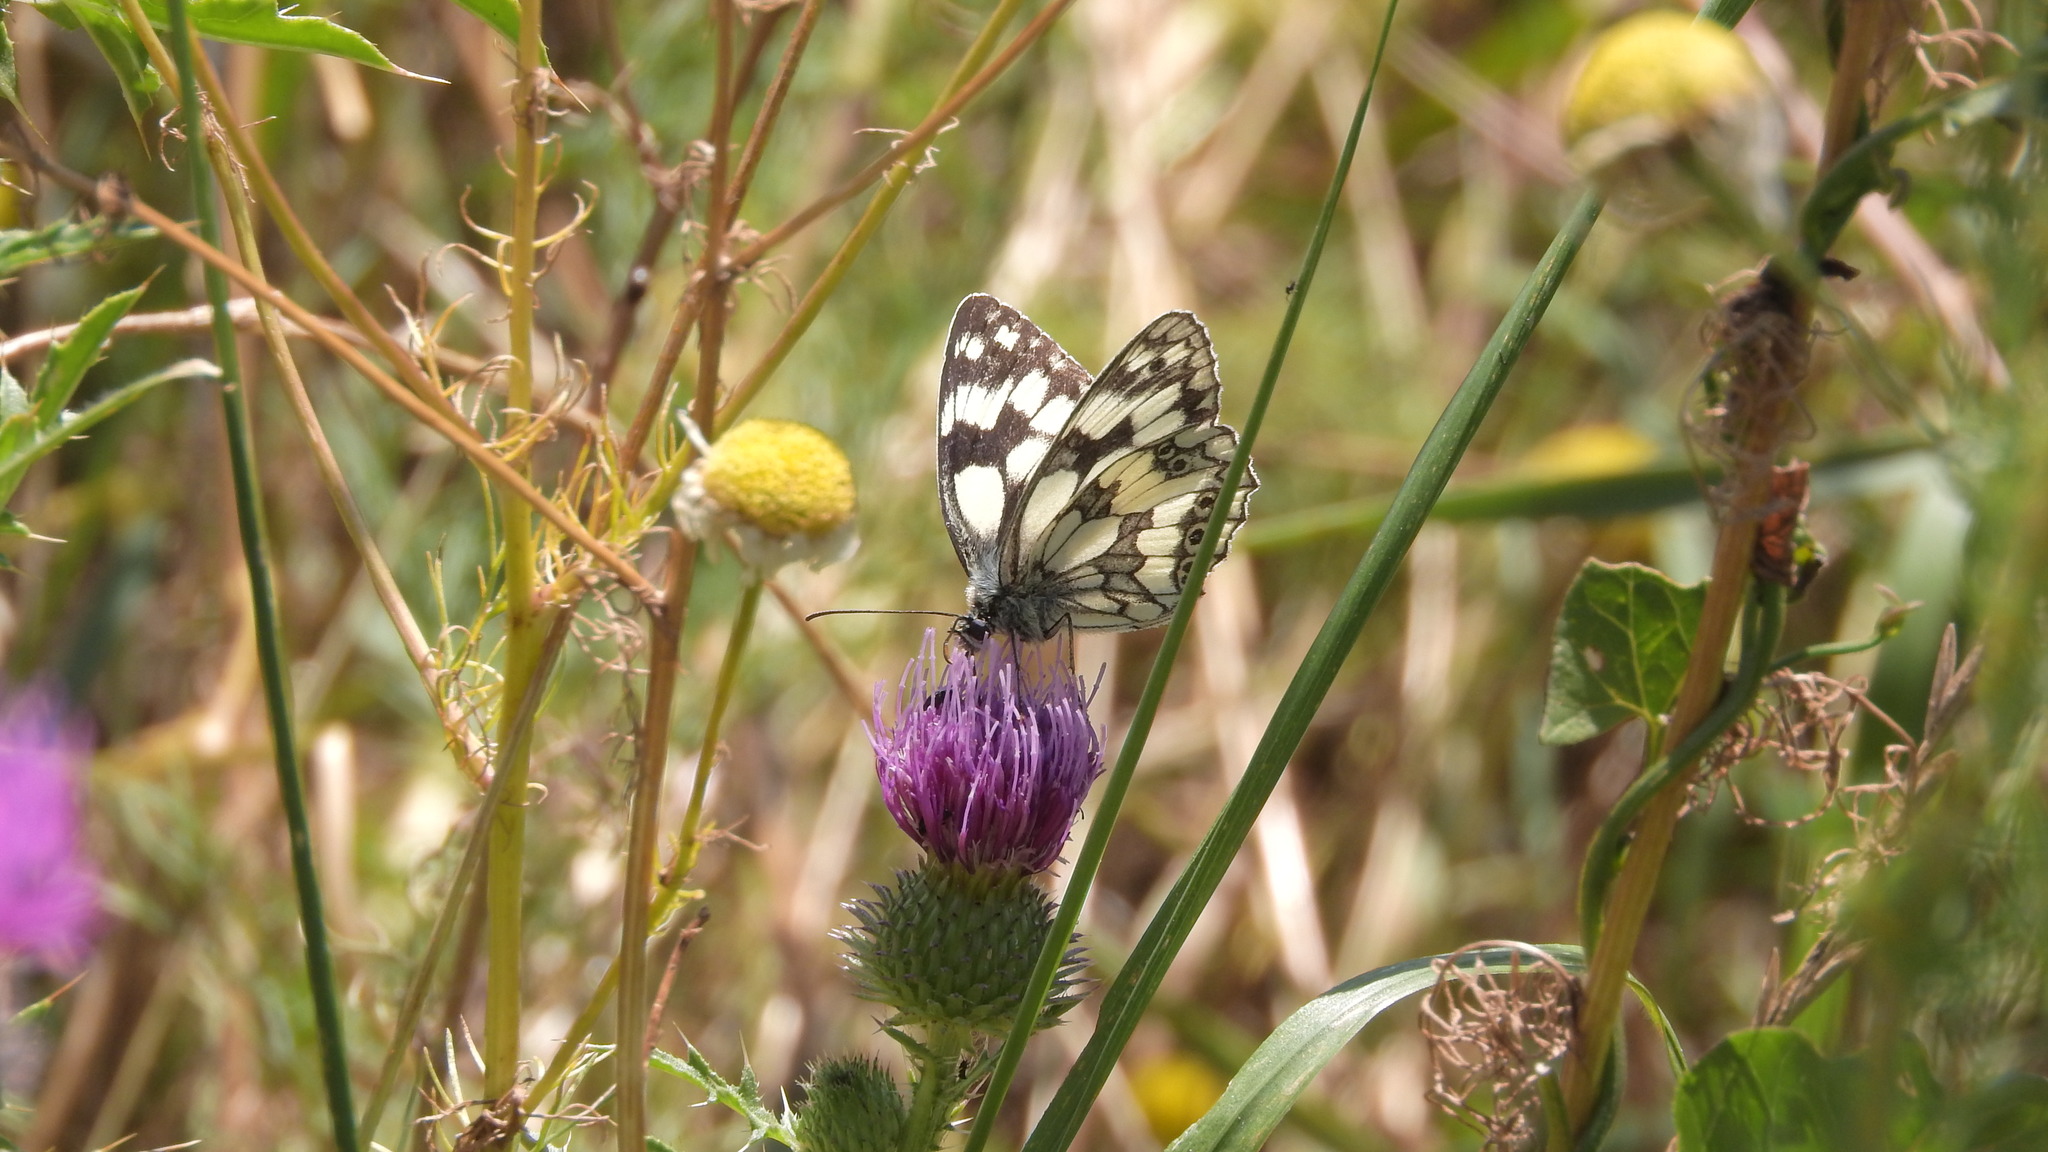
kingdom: Animalia
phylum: Arthropoda
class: Insecta
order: Lepidoptera
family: Nymphalidae
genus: Melanargia
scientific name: Melanargia galathea
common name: Marbled white
